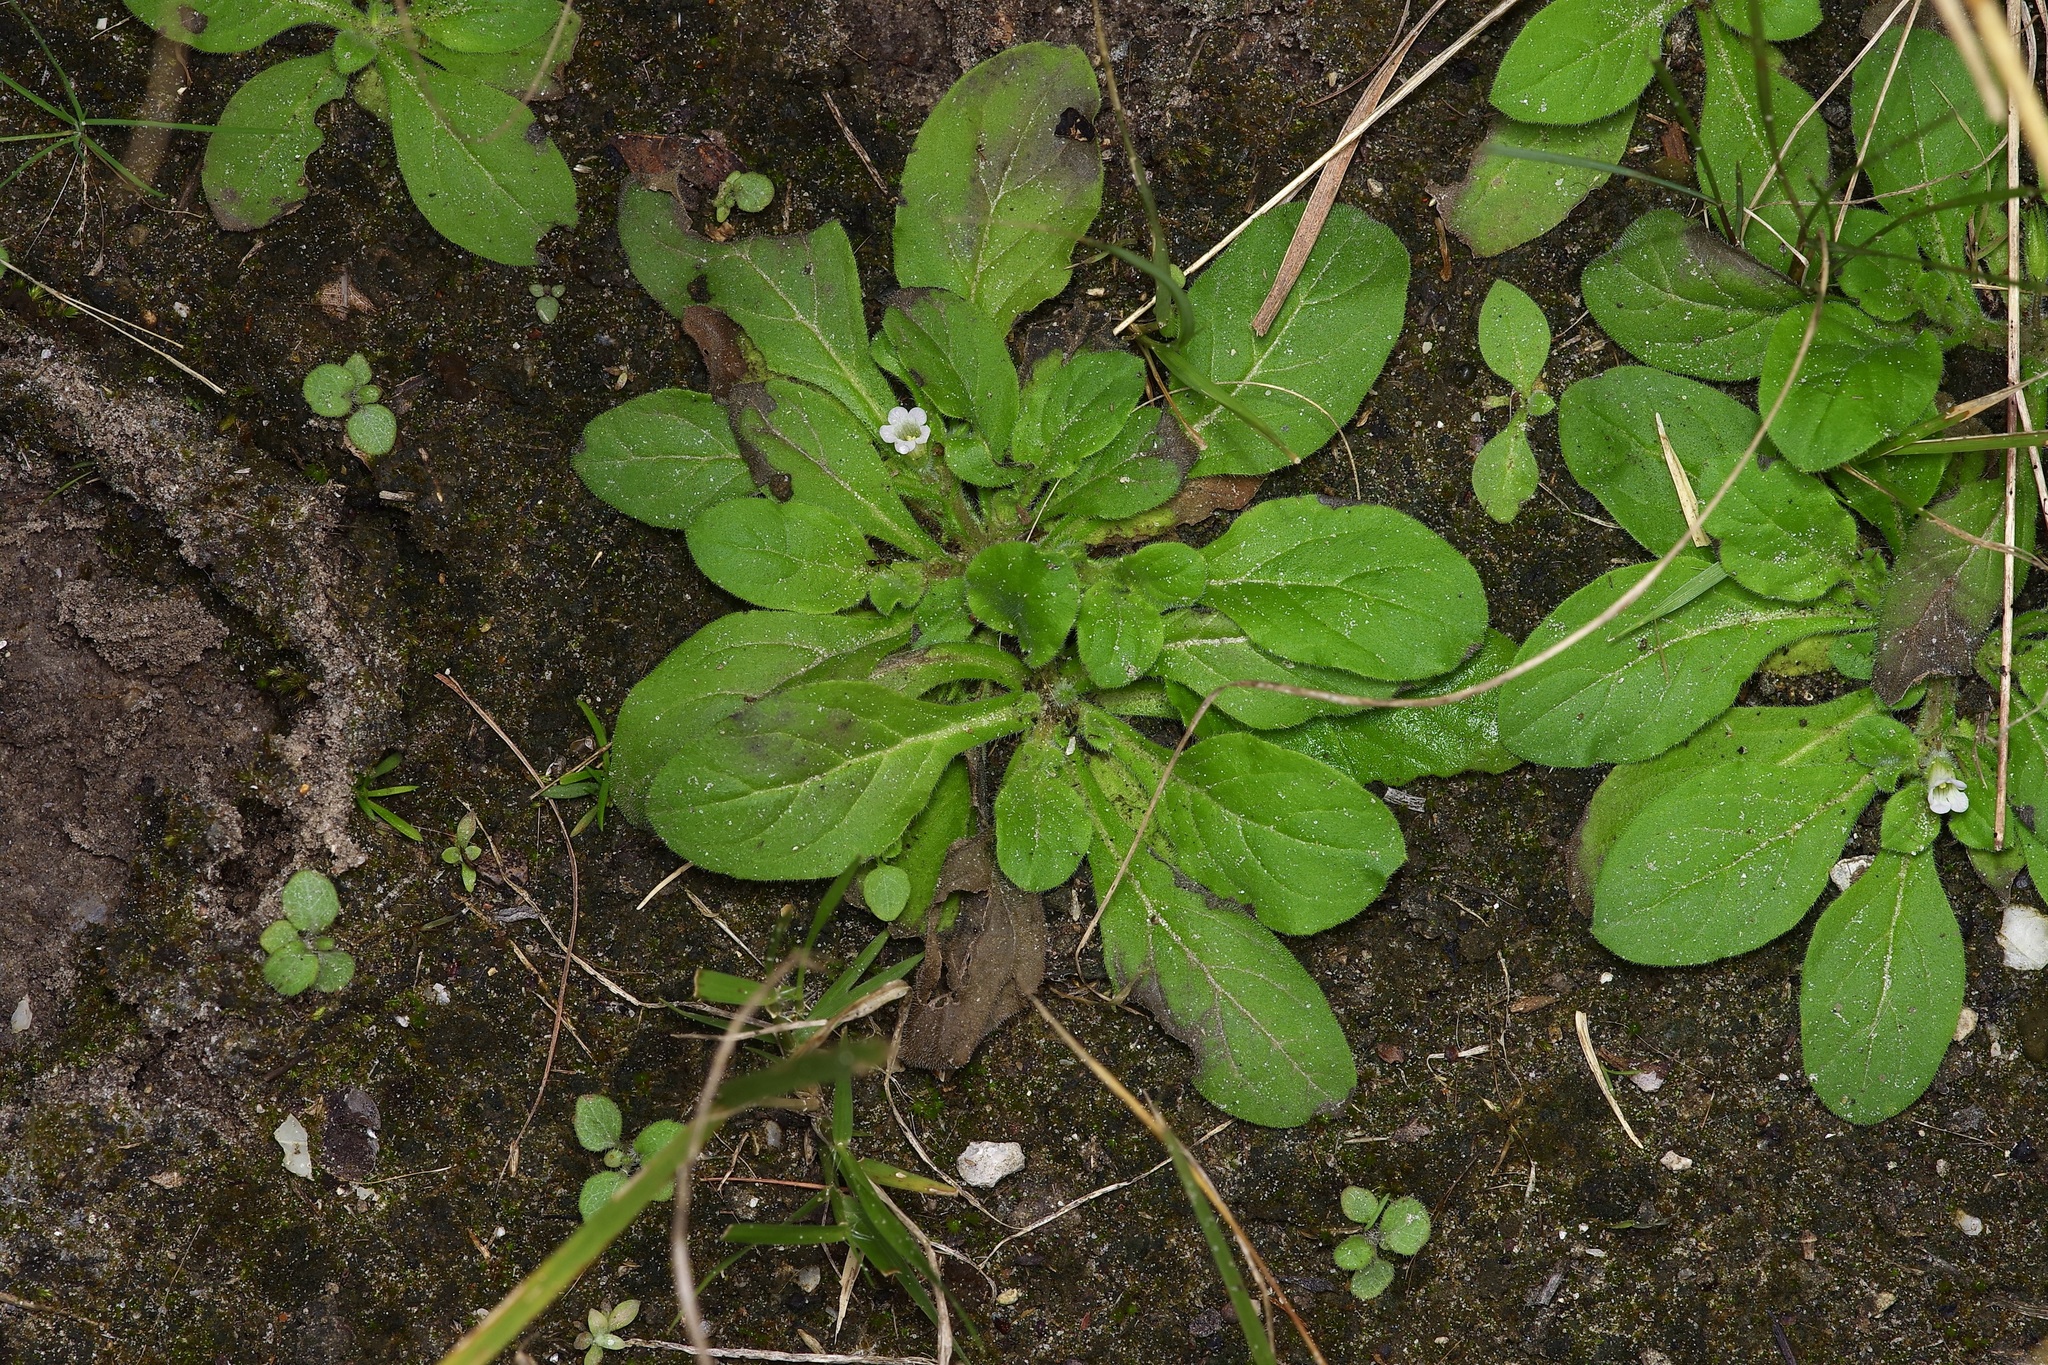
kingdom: Plantae
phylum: Tracheophyta
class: Magnoliopsida
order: Boraginales
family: Namaceae
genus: Nama
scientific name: Nama jamaicensis
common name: Jamaicanweed
